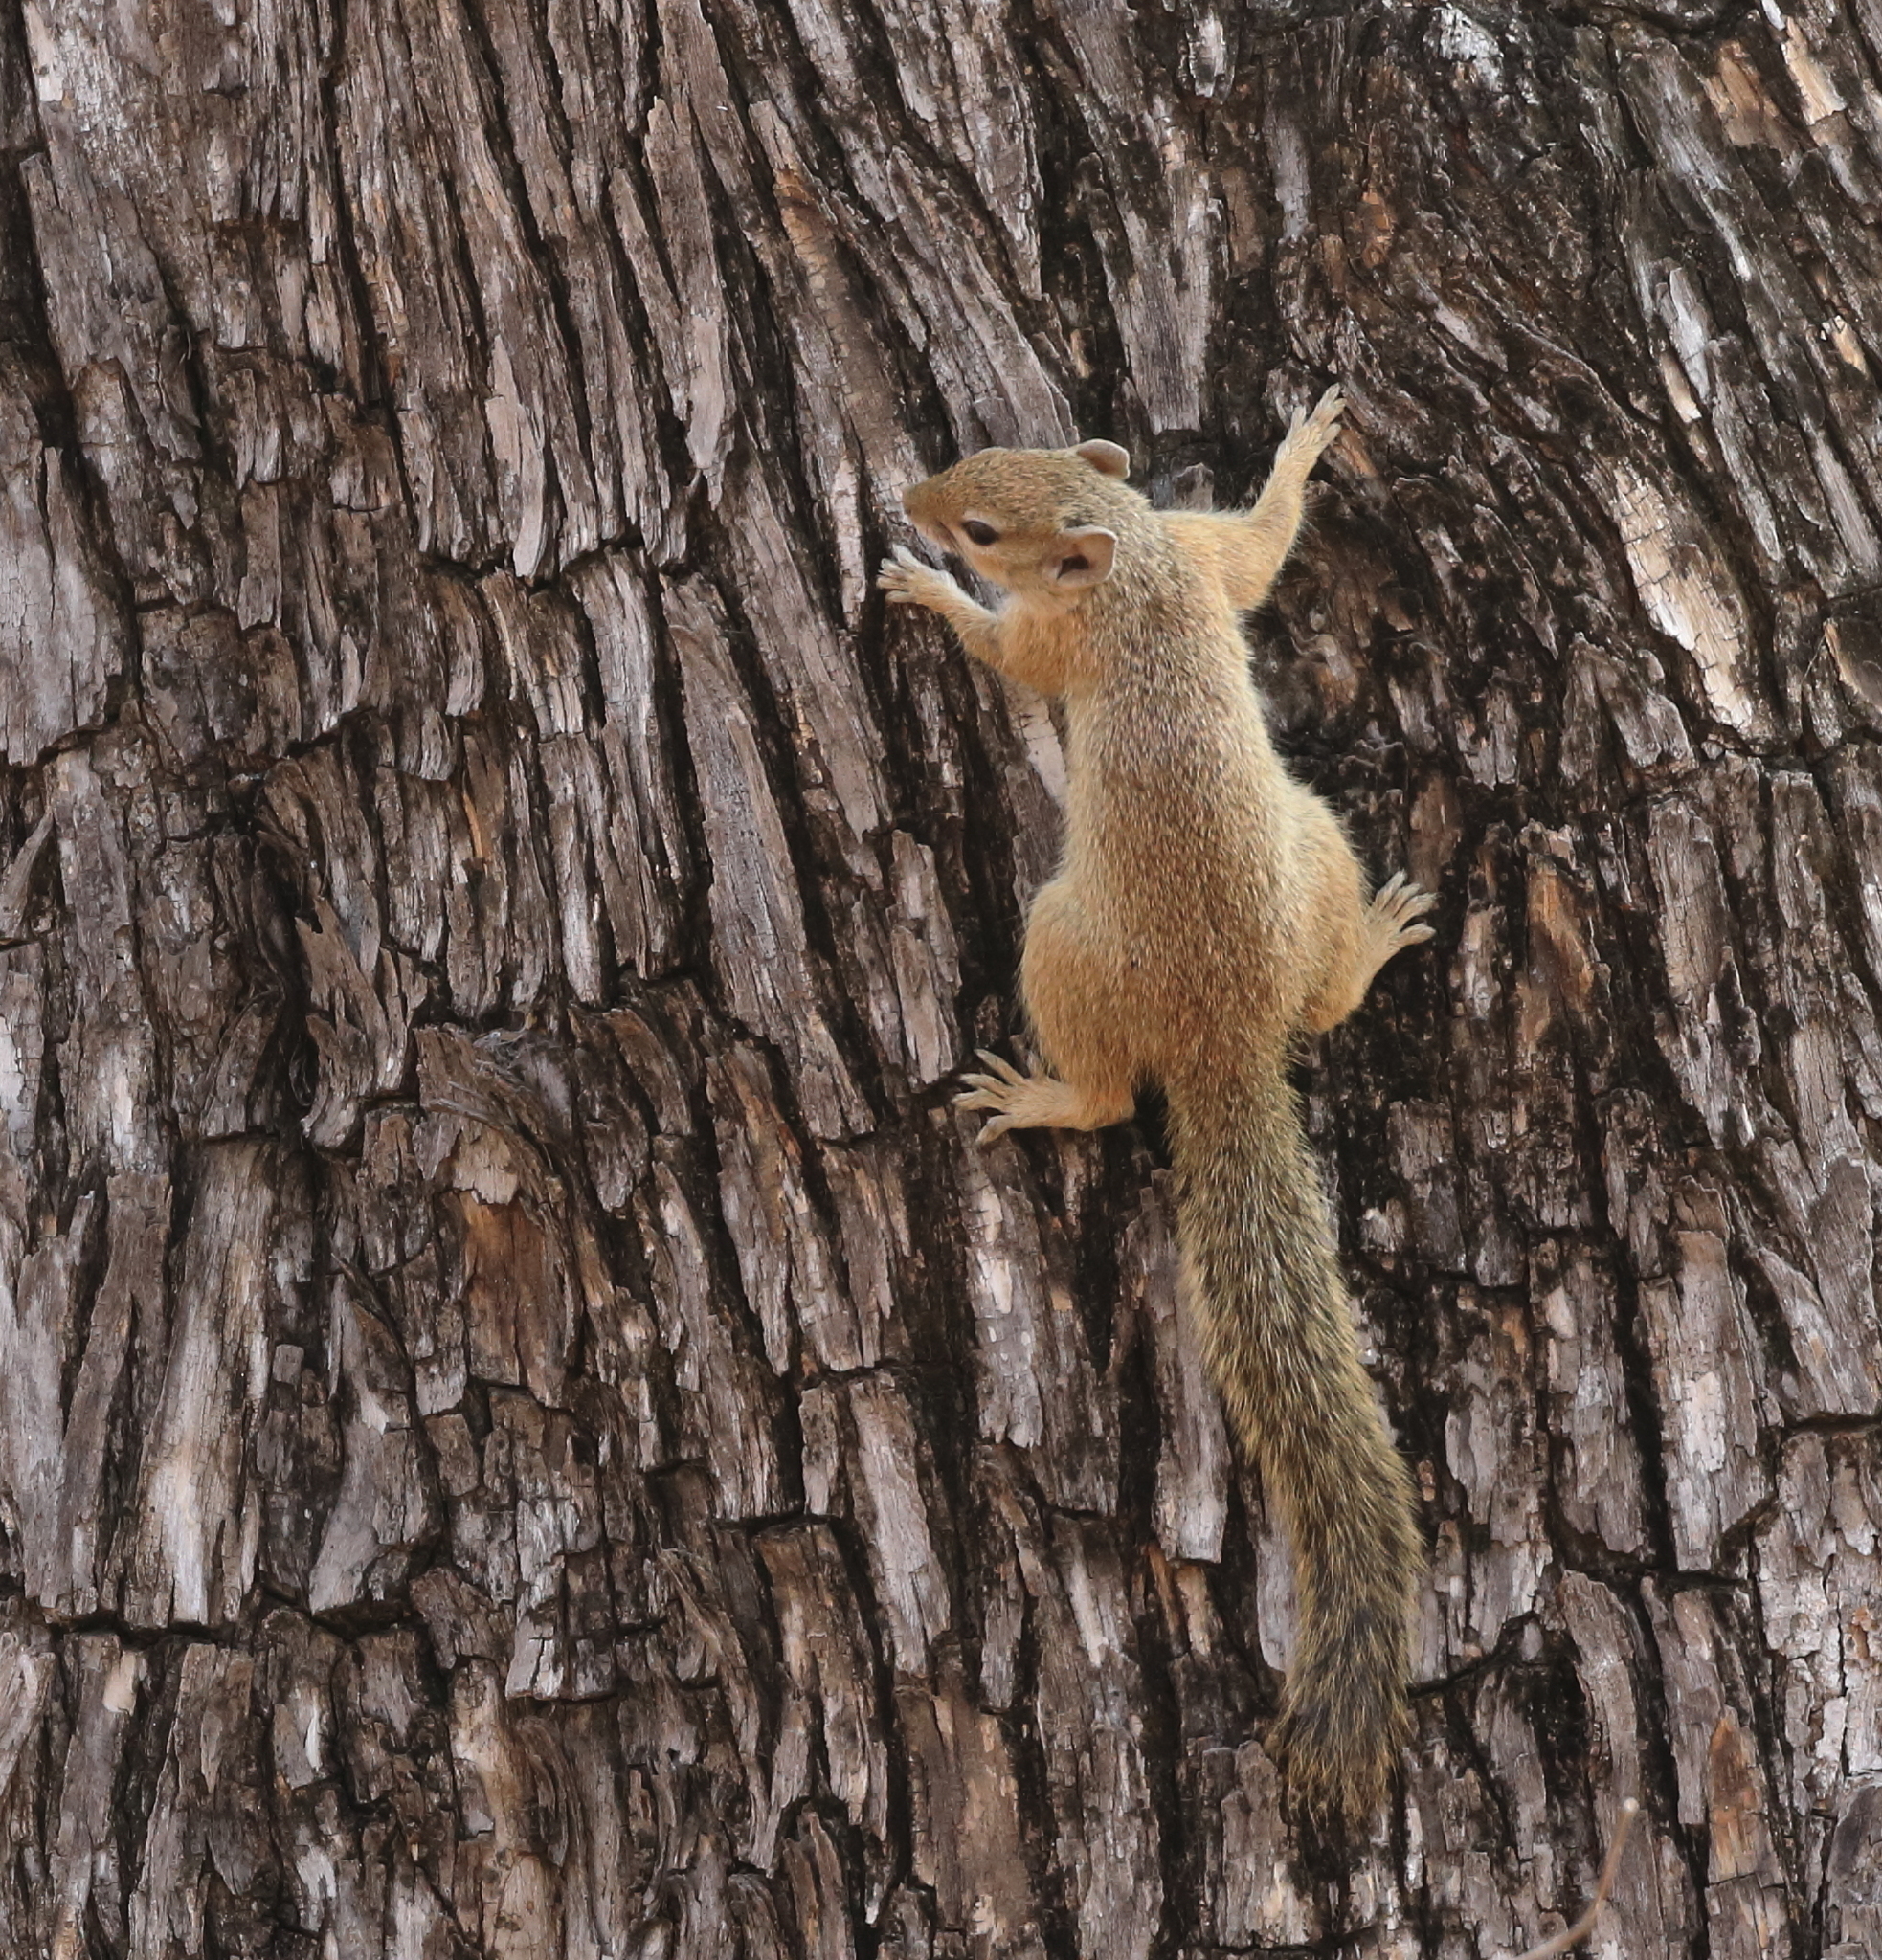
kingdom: Animalia
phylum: Chordata
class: Mammalia
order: Rodentia
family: Sciuridae
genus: Paraxerus
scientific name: Paraxerus cepapi
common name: Smith's bush squirrel
